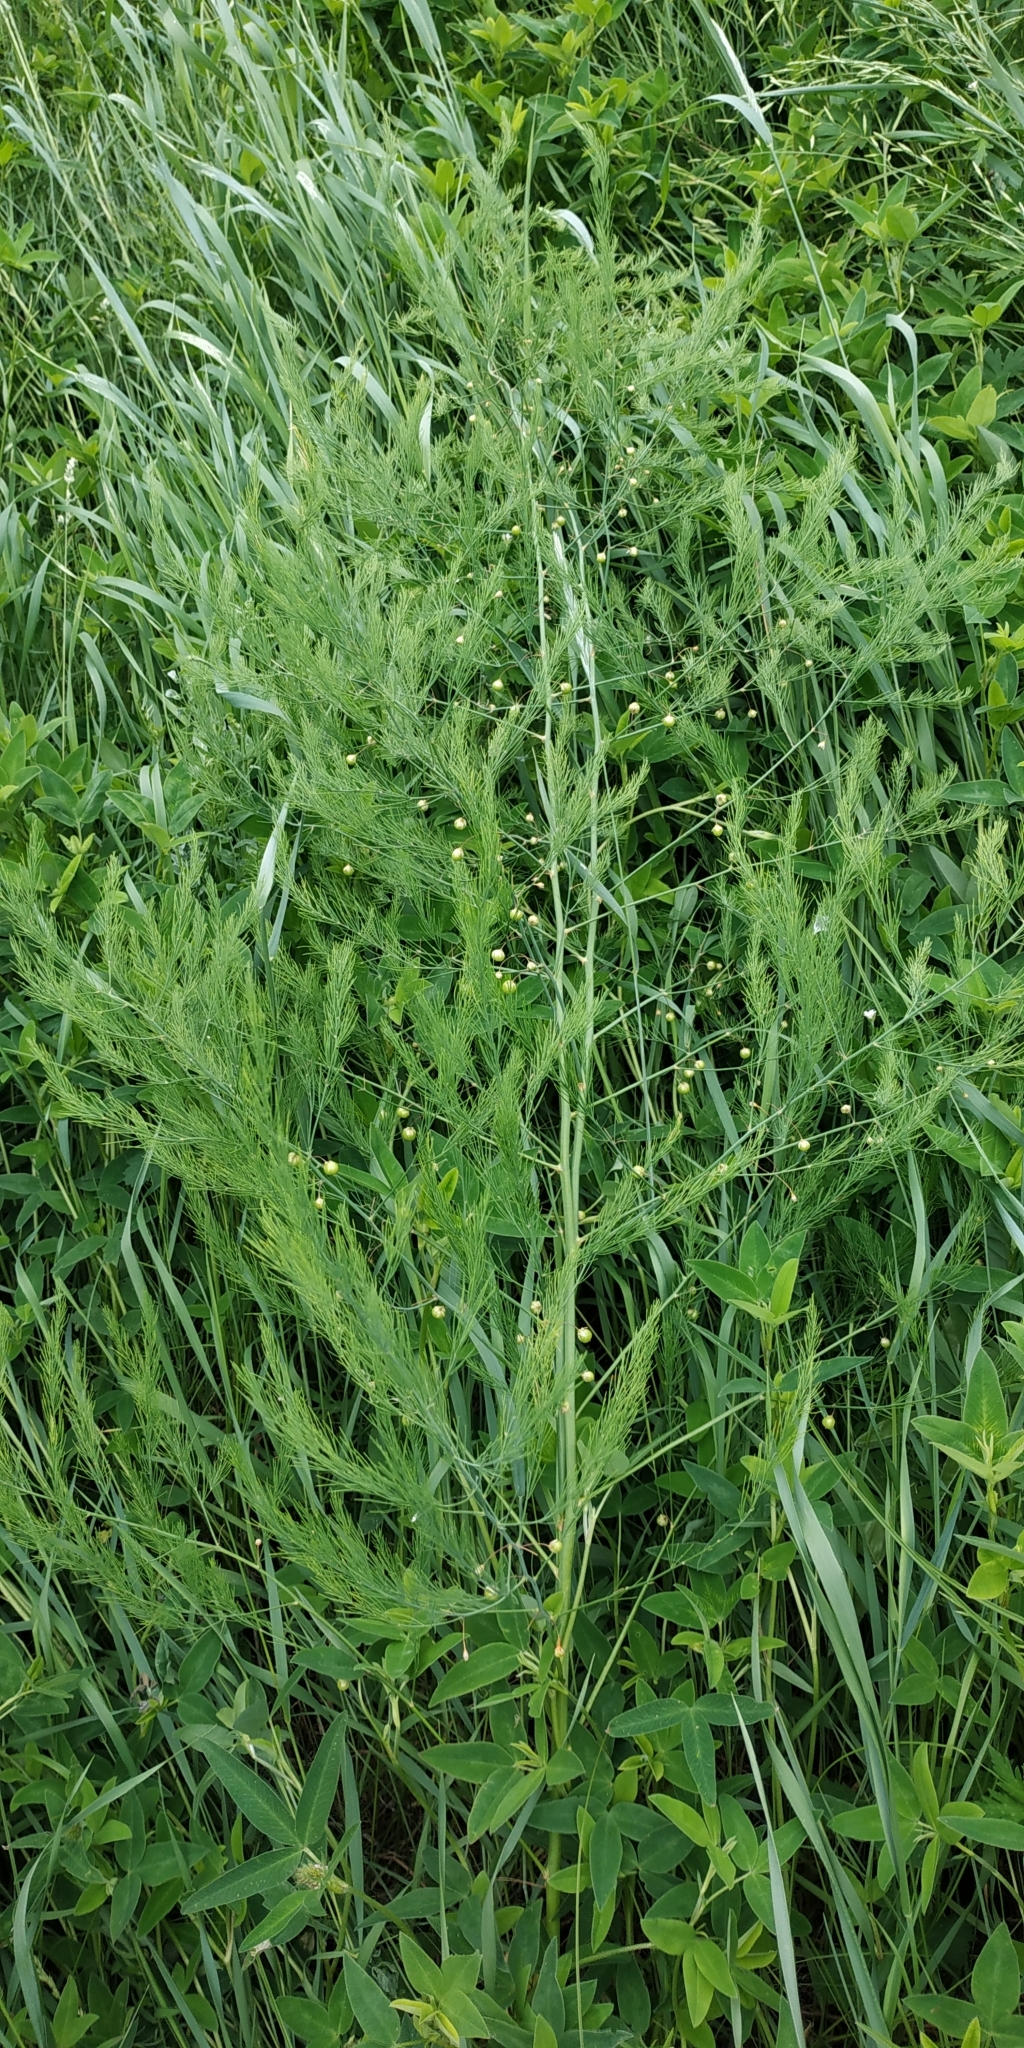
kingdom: Plantae
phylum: Tracheophyta
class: Liliopsida
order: Asparagales
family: Asparagaceae
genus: Asparagus
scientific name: Asparagus officinalis
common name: Garden asparagus
